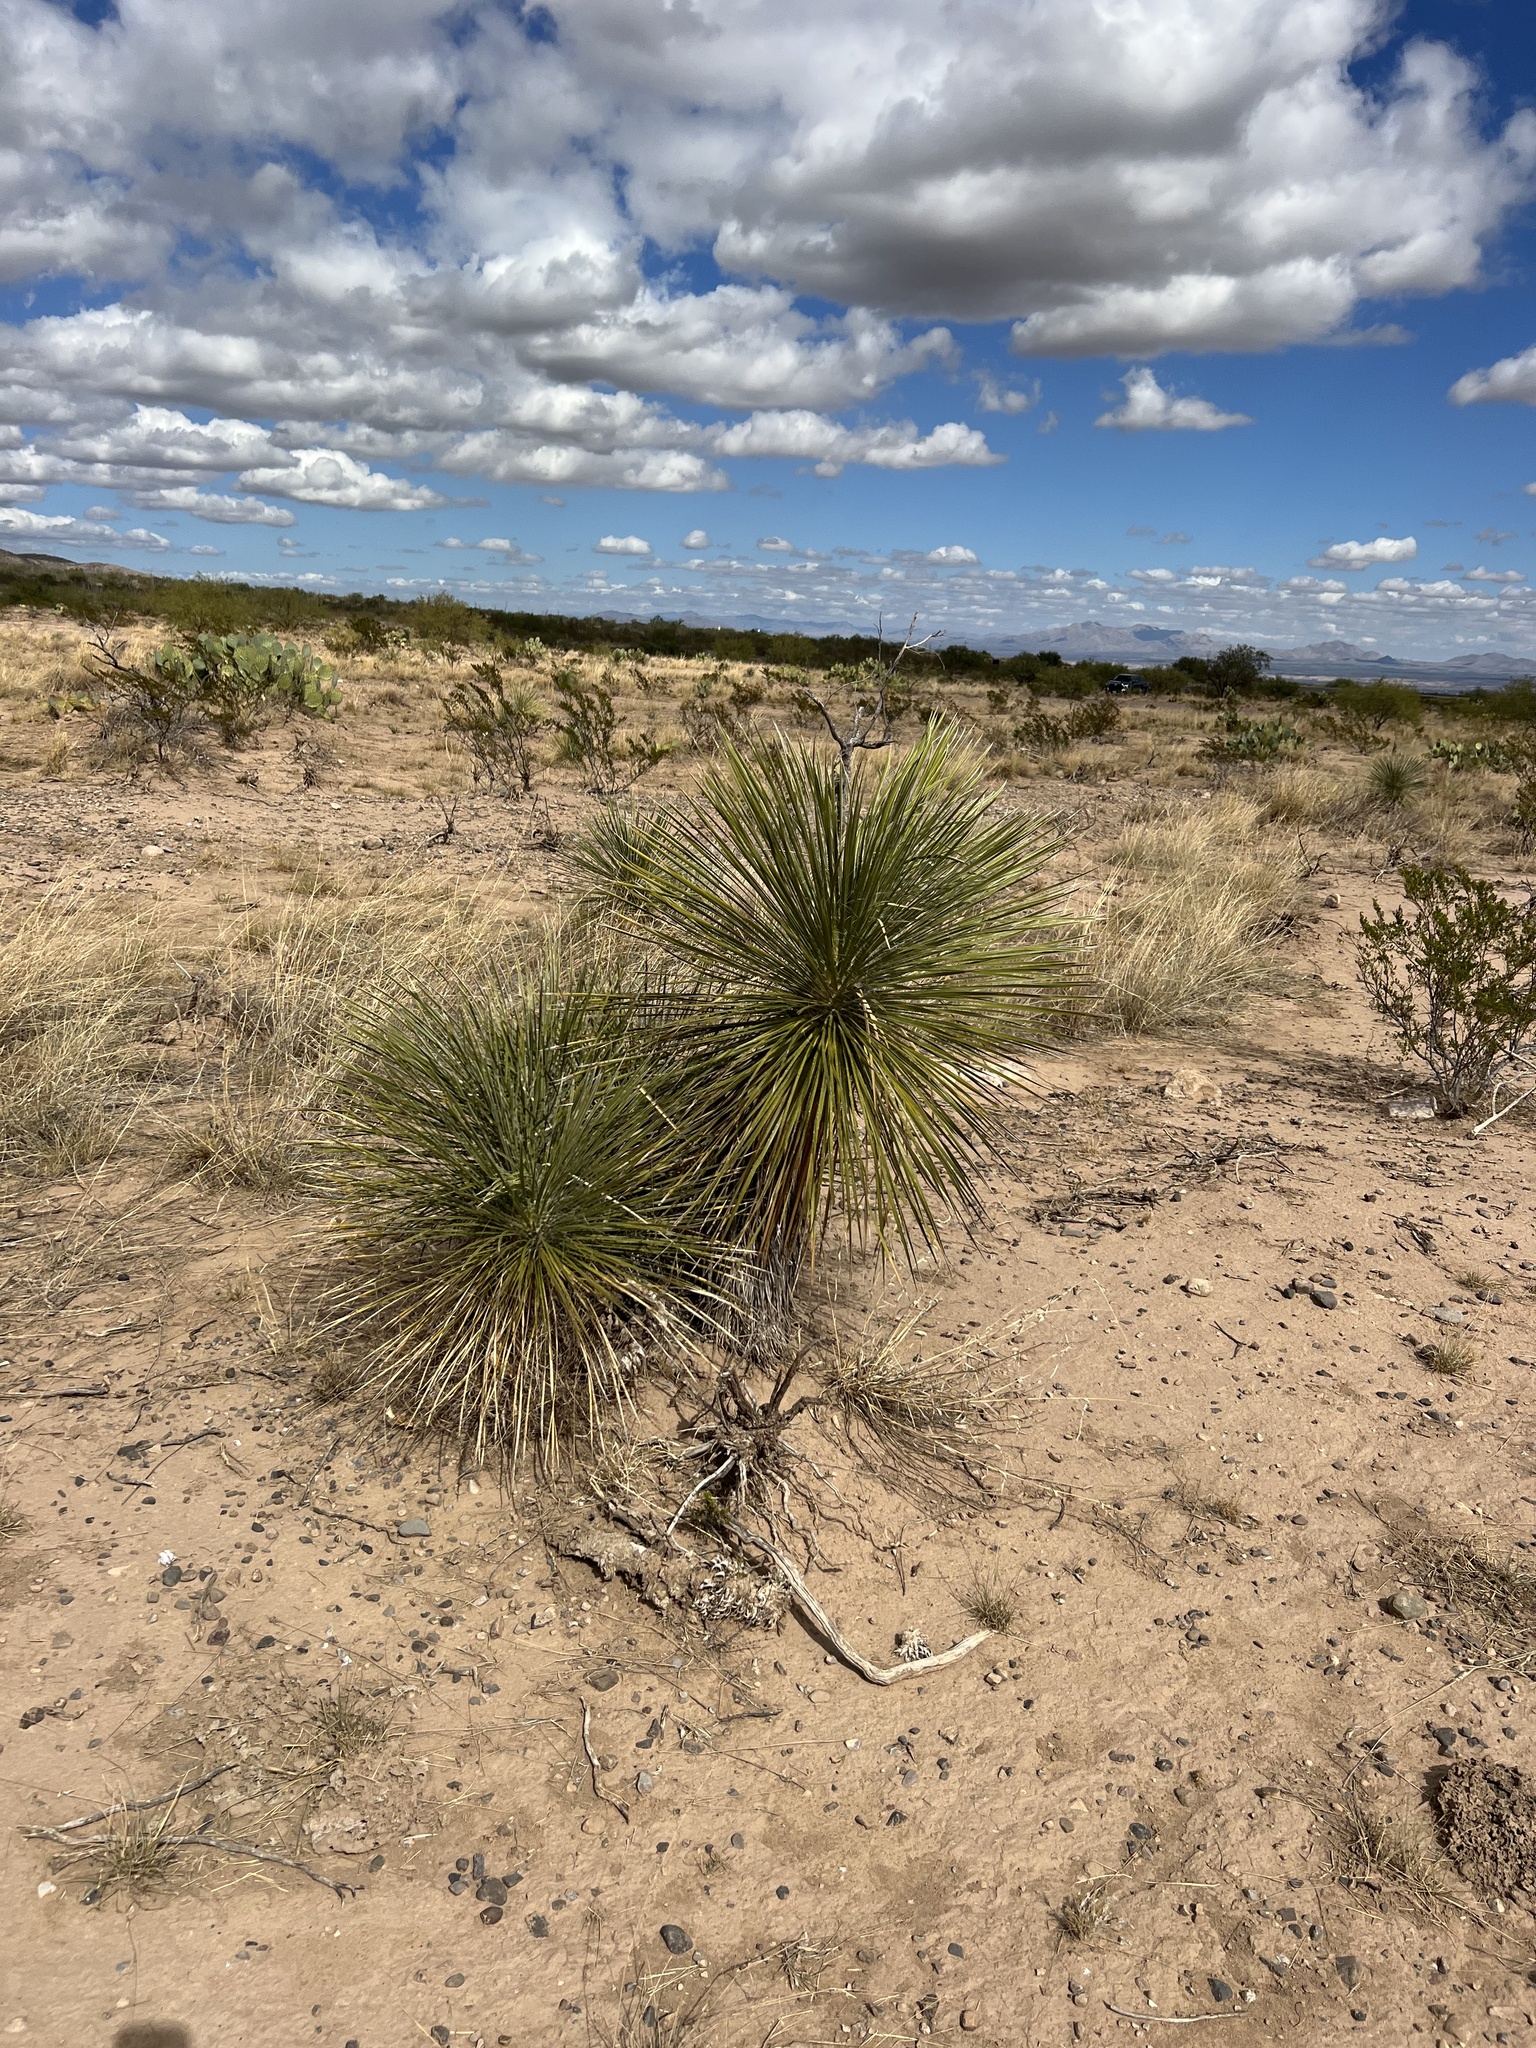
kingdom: Plantae
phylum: Tracheophyta
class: Liliopsida
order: Asparagales
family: Asparagaceae
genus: Yucca
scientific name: Yucca elata
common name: Palmella
